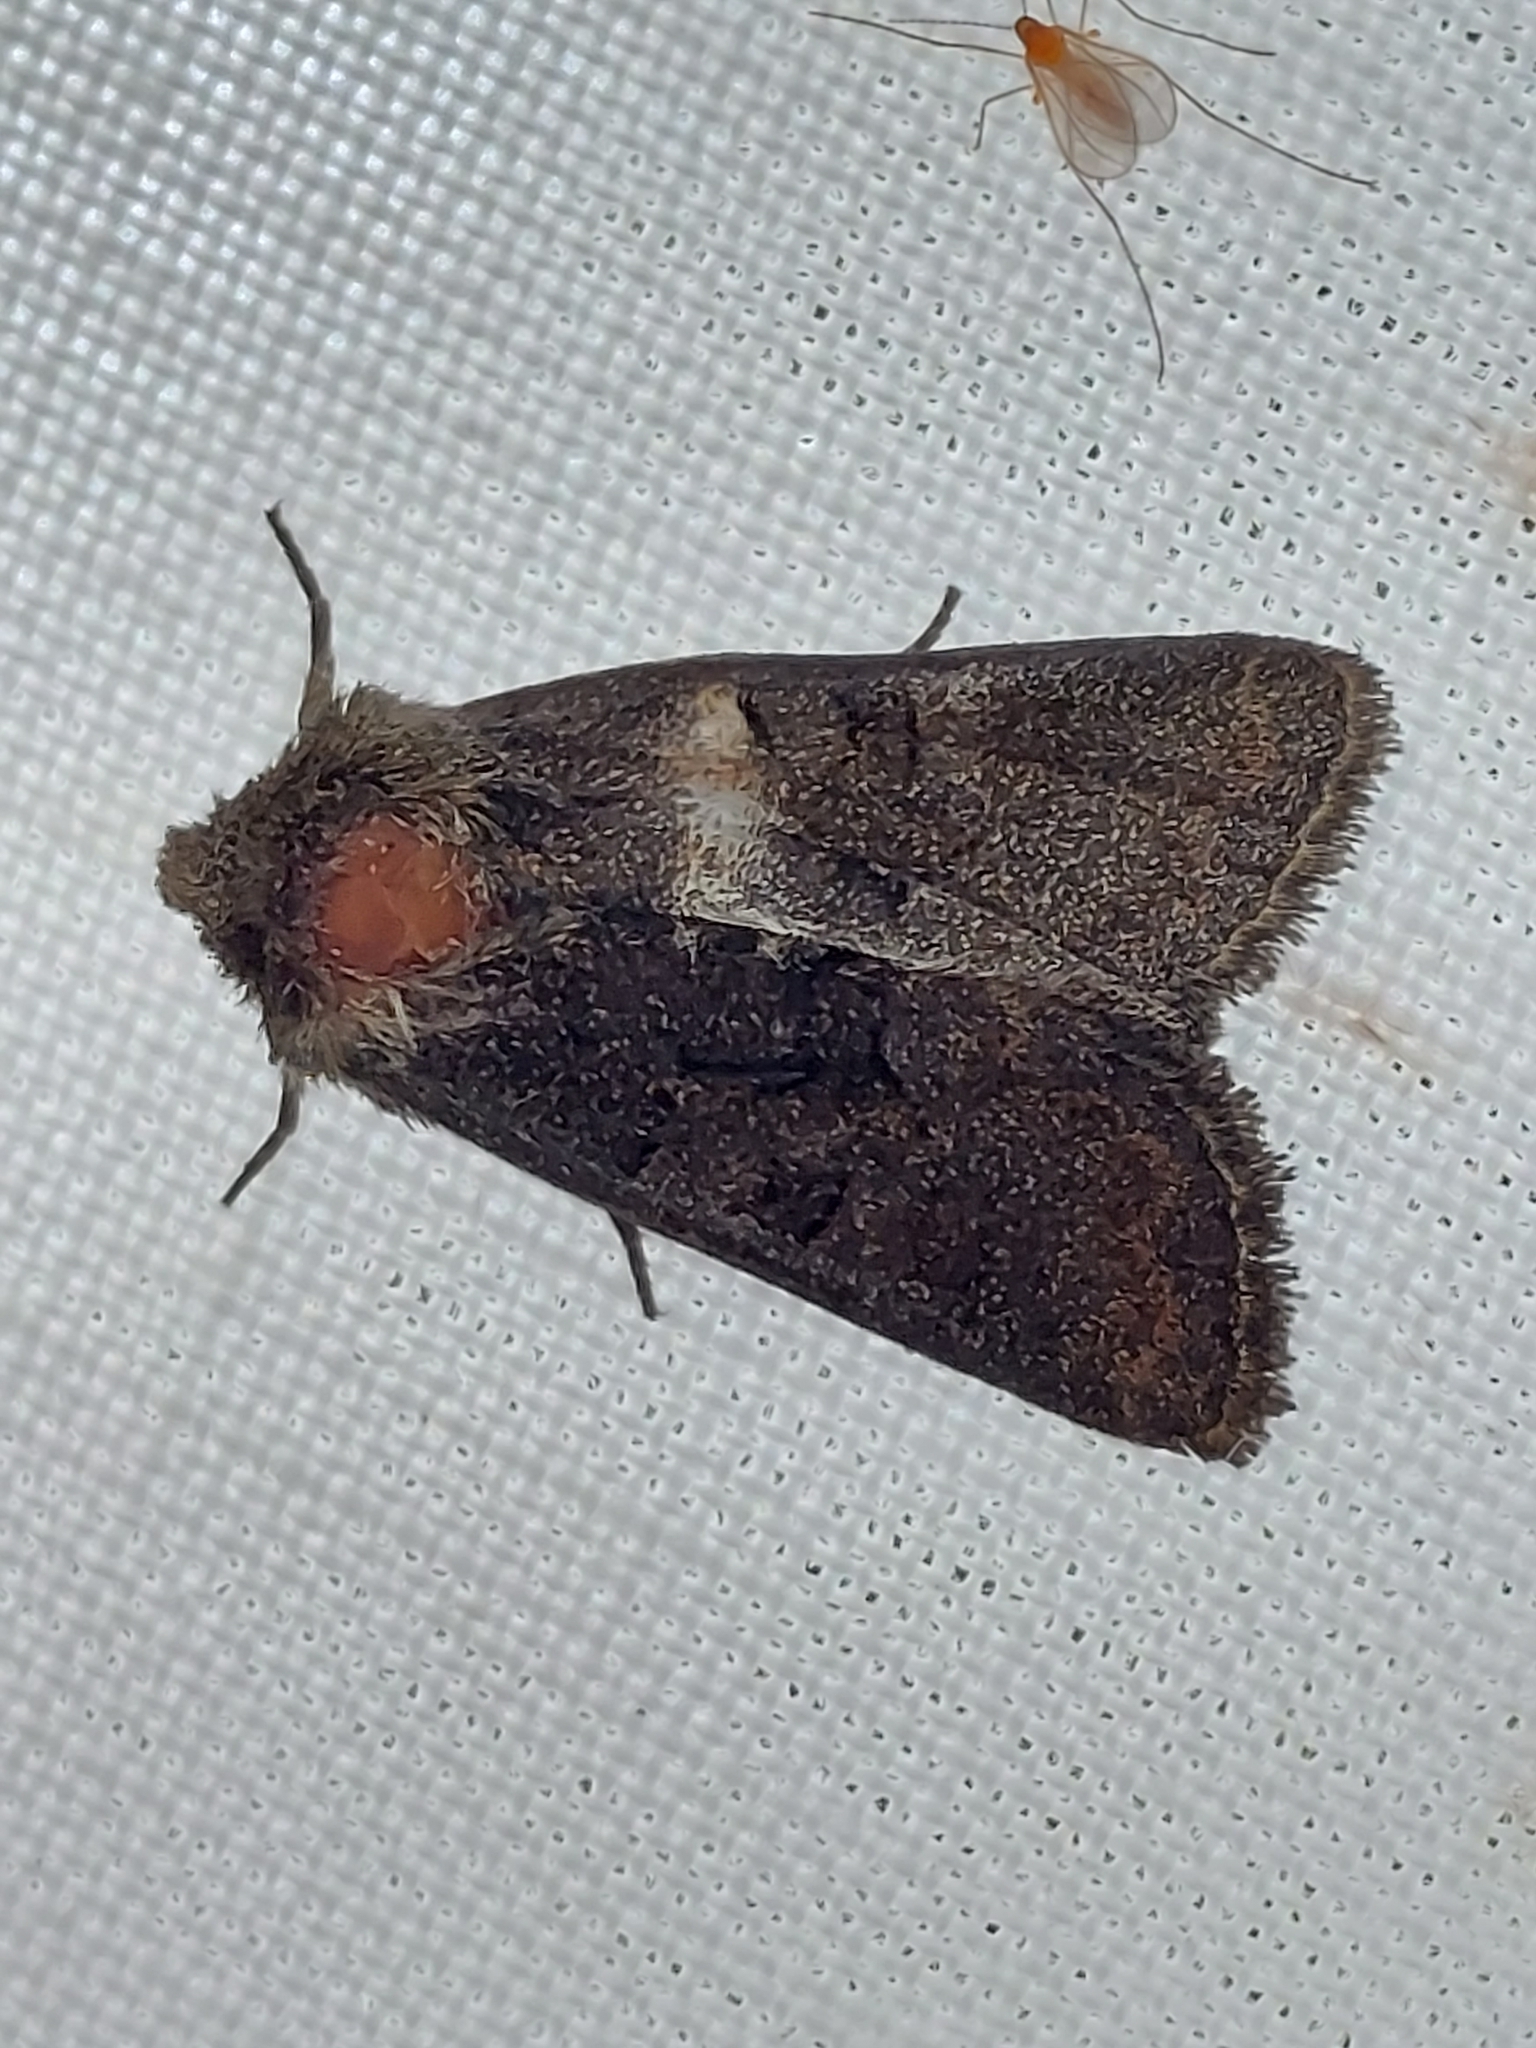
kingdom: Animalia
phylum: Arthropoda
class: Insecta
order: Lepidoptera
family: Noctuidae
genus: Oligia
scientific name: Oligia latruncula
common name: Tawny marbled minor
